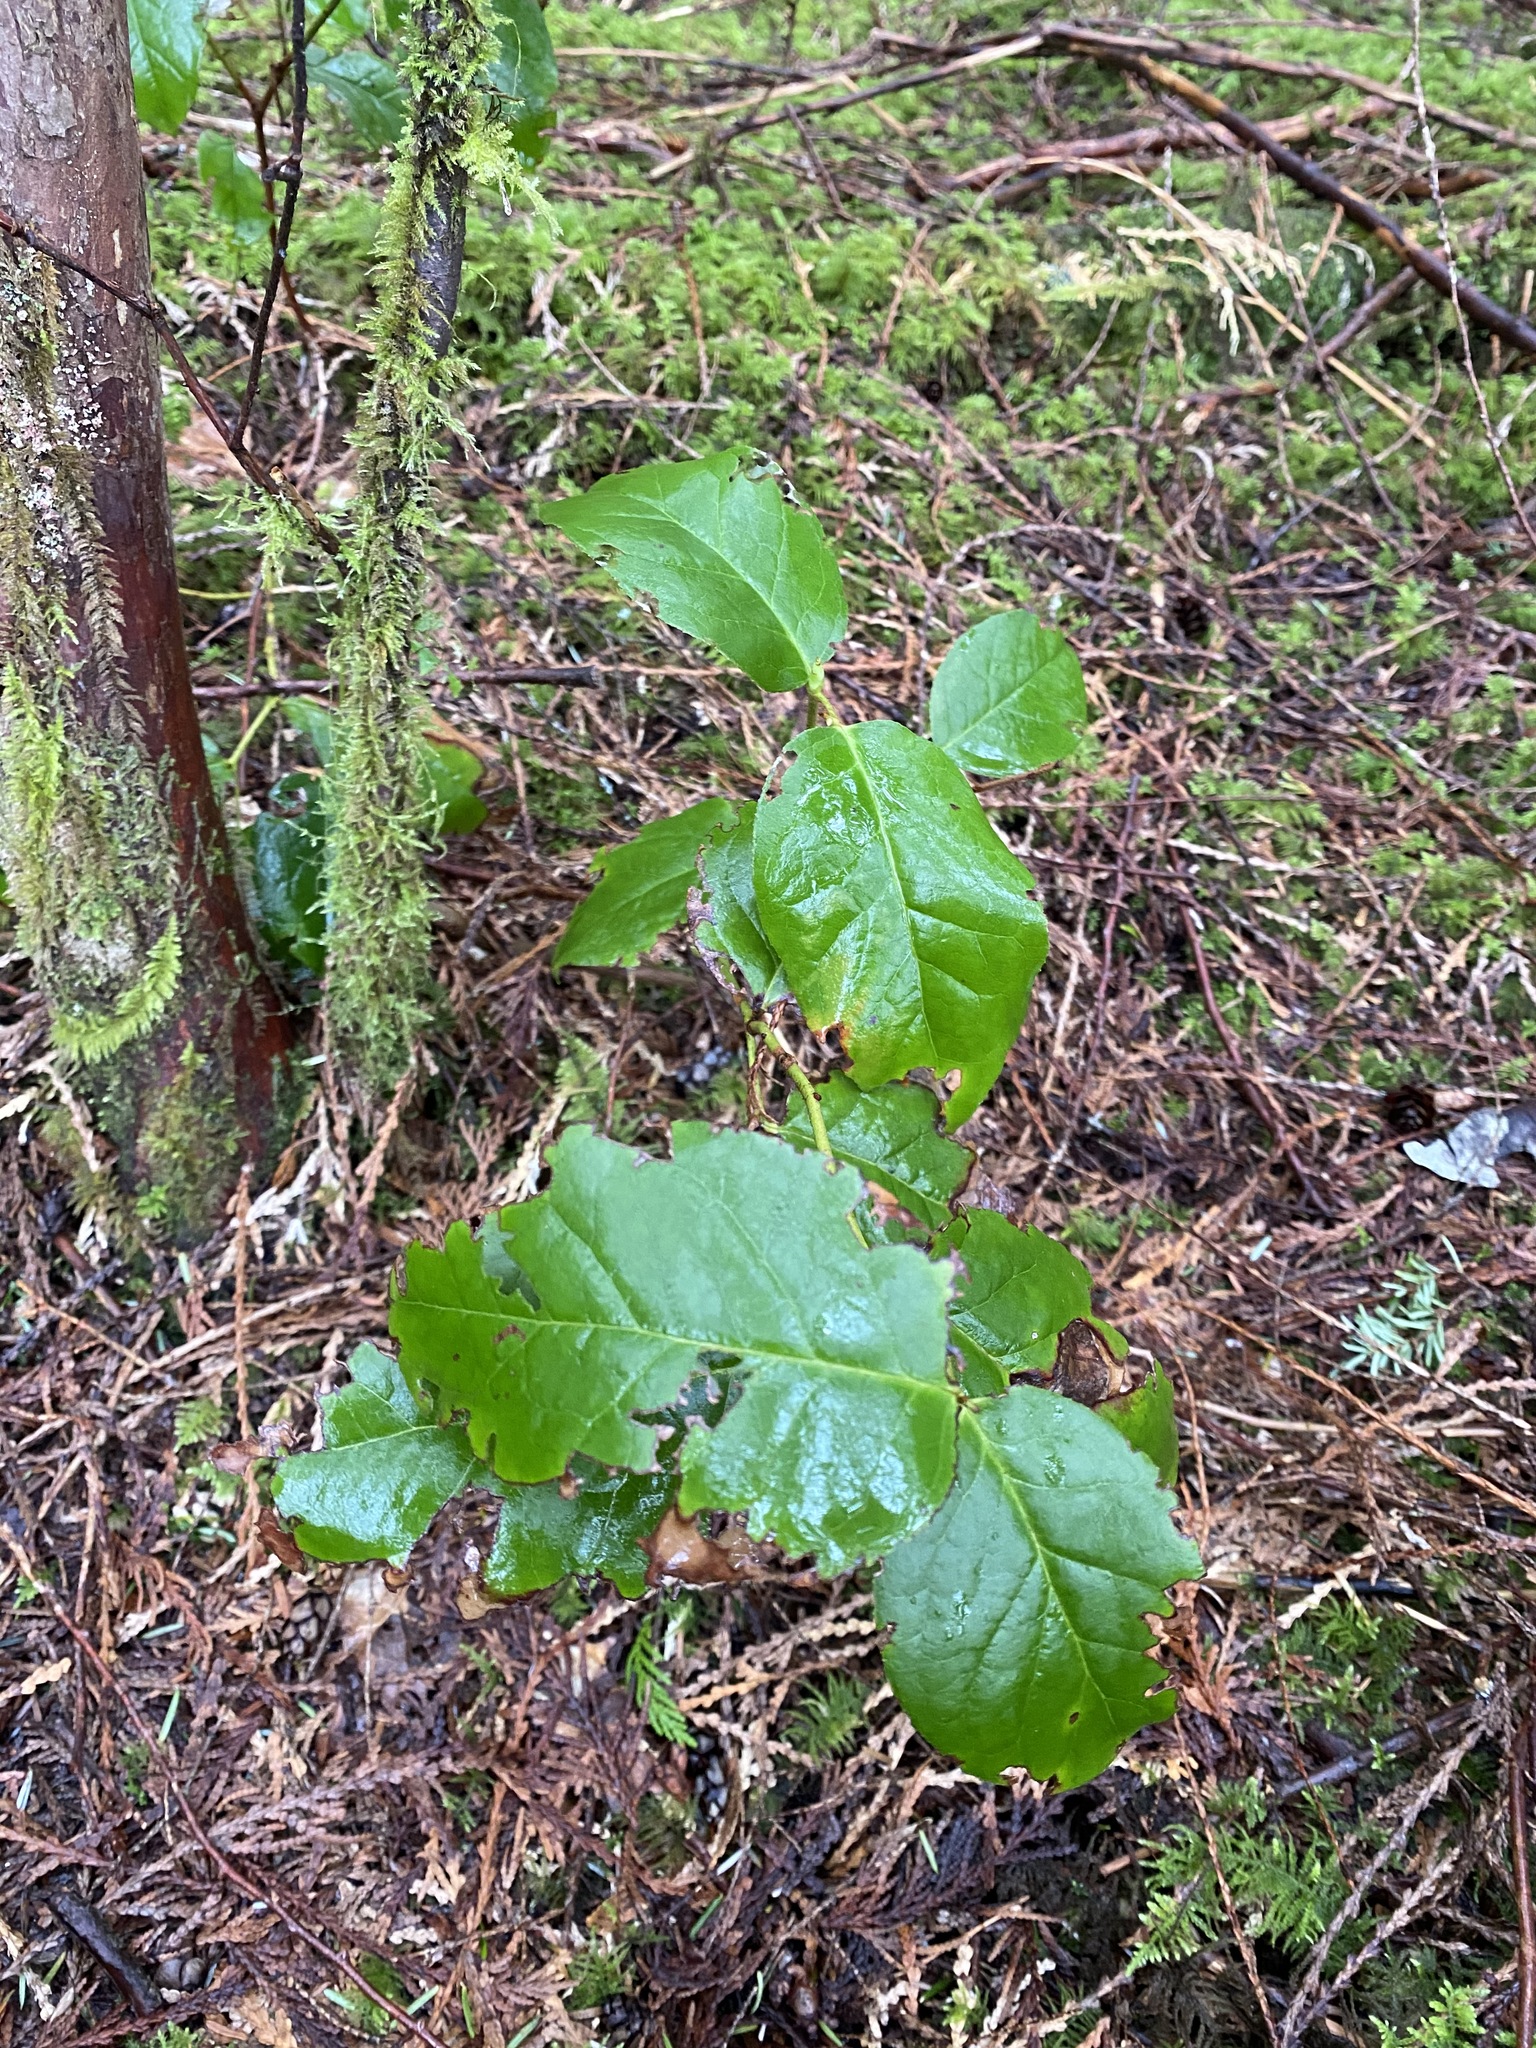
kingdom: Plantae
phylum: Tracheophyta
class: Magnoliopsida
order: Ericales
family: Ericaceae
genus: Gaultheria
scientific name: Gaultheria shallon
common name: Shallon
